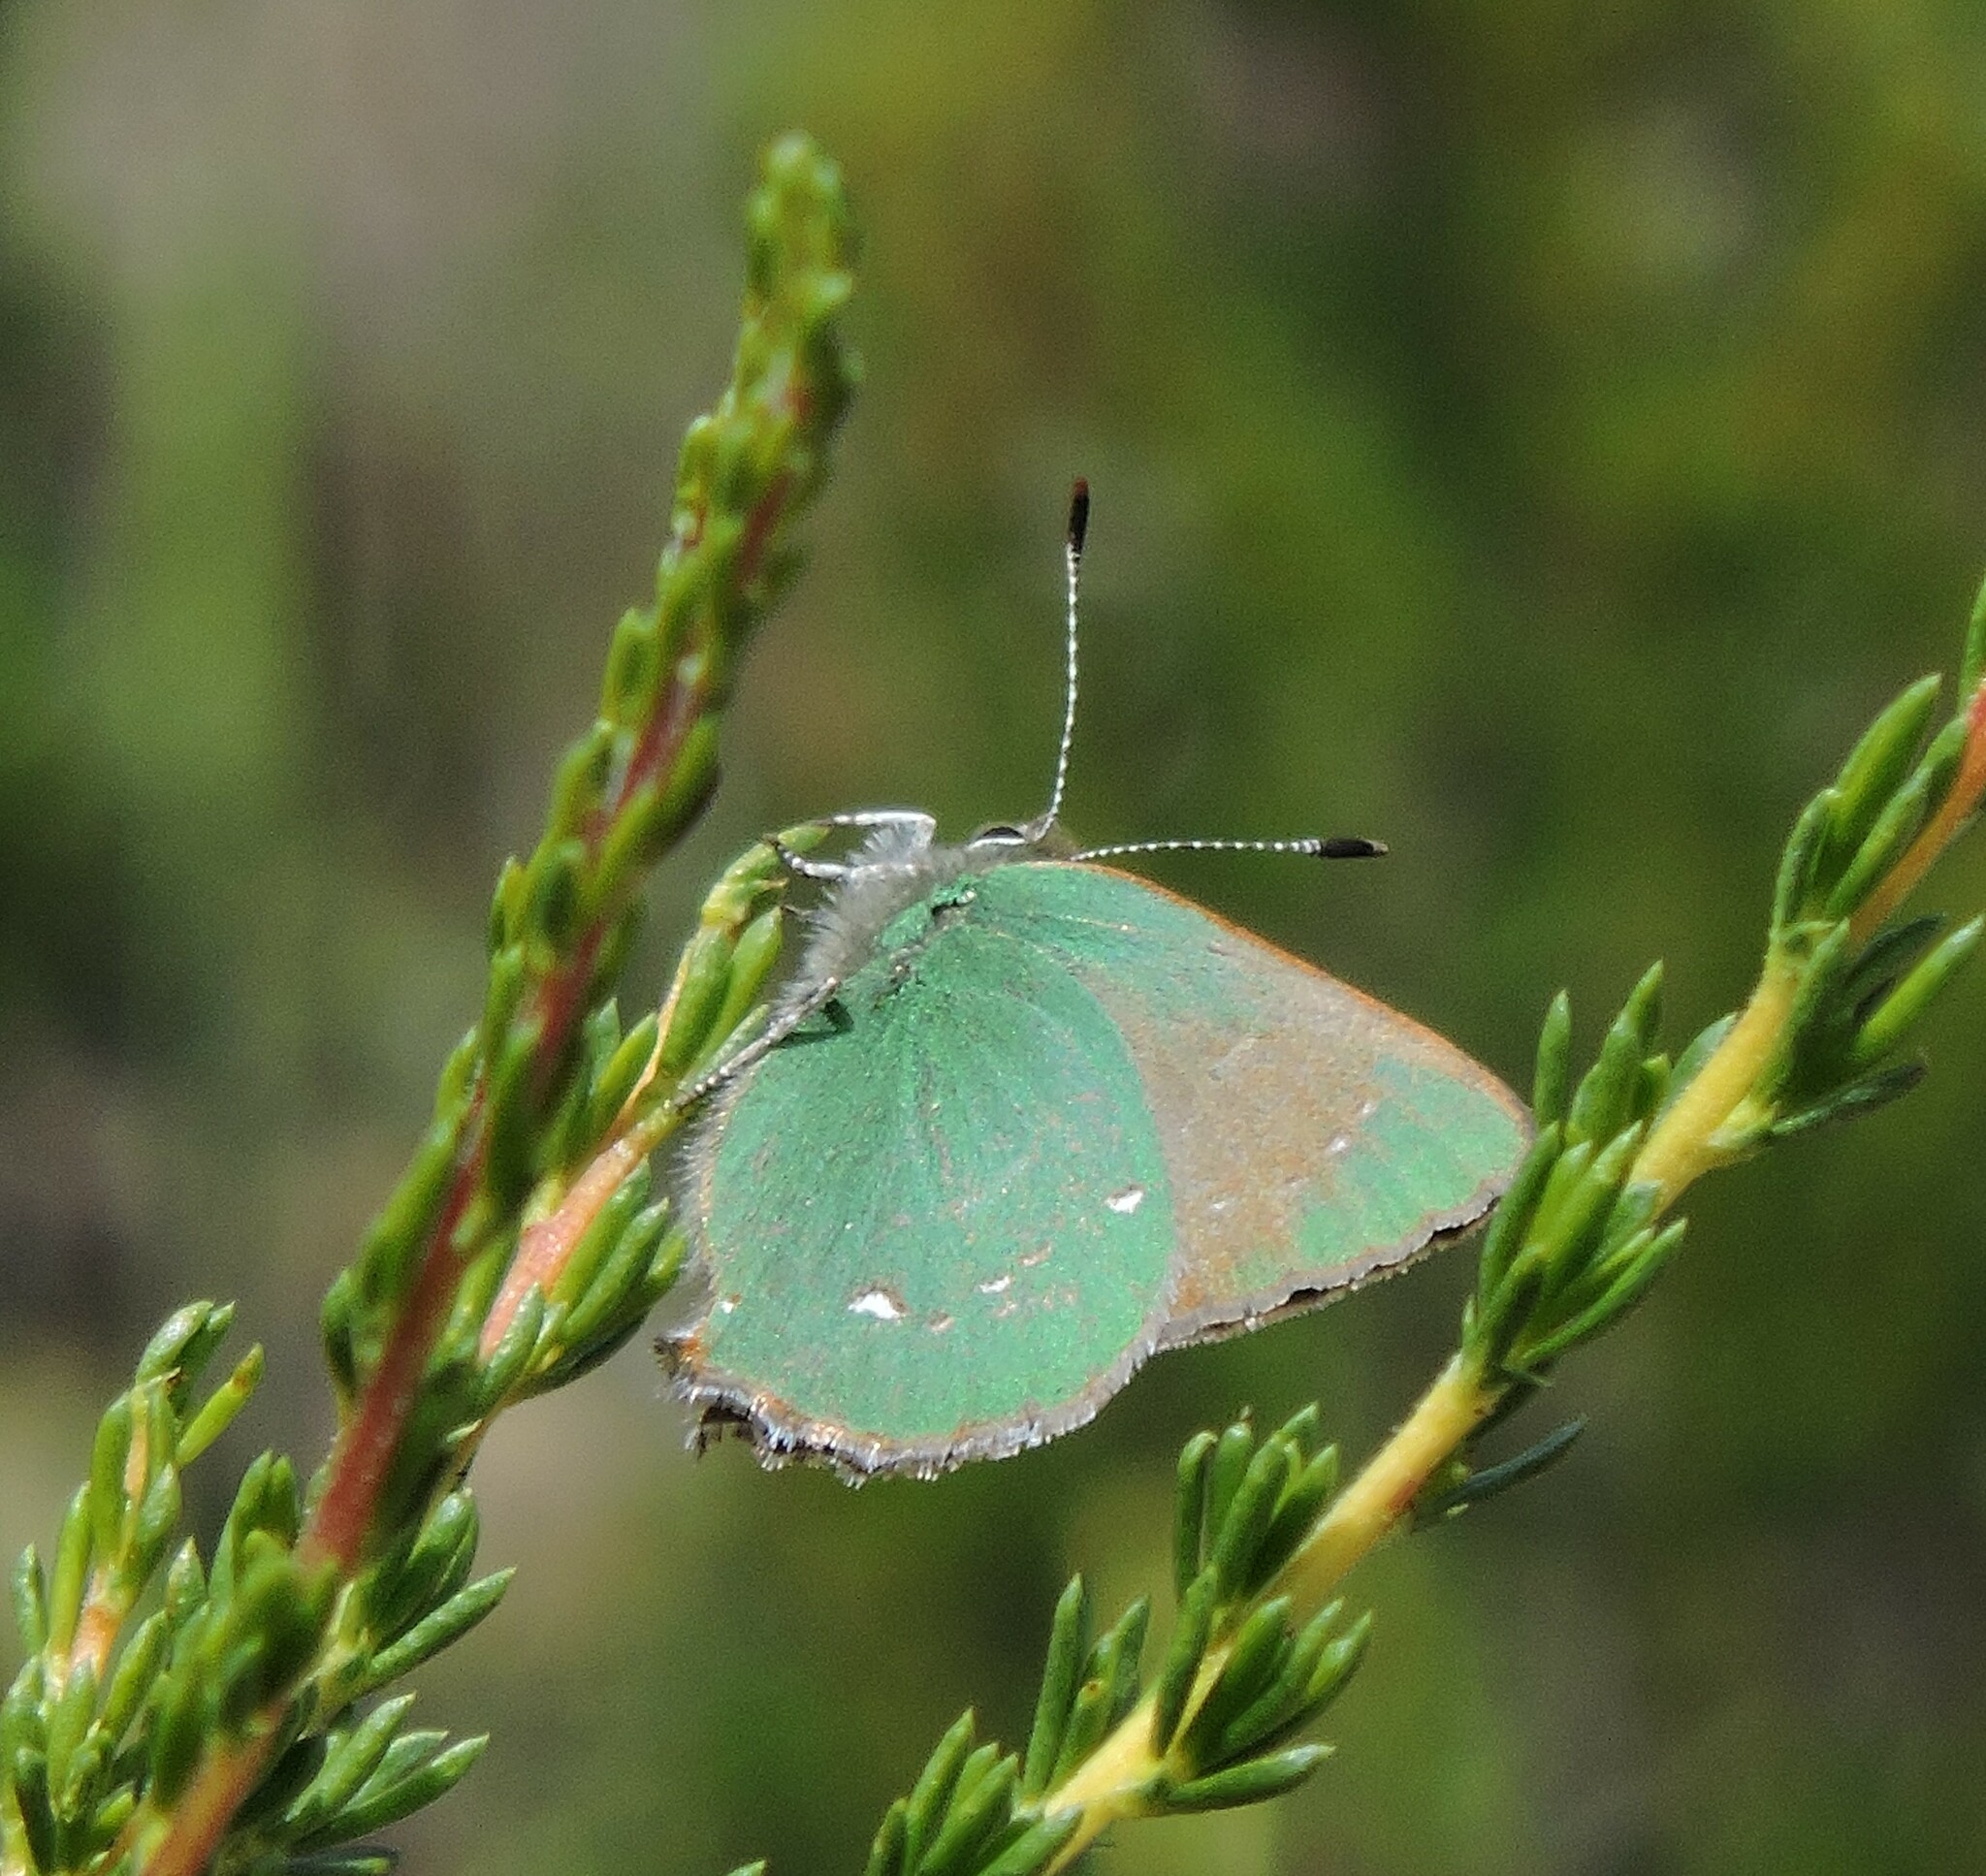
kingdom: Animalia
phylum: Arthropoda
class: Insecta
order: Lepidoptera
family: Lycaenidae
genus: Callophrys
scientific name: Callophrys dumetorum
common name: Bramble hairstreak
